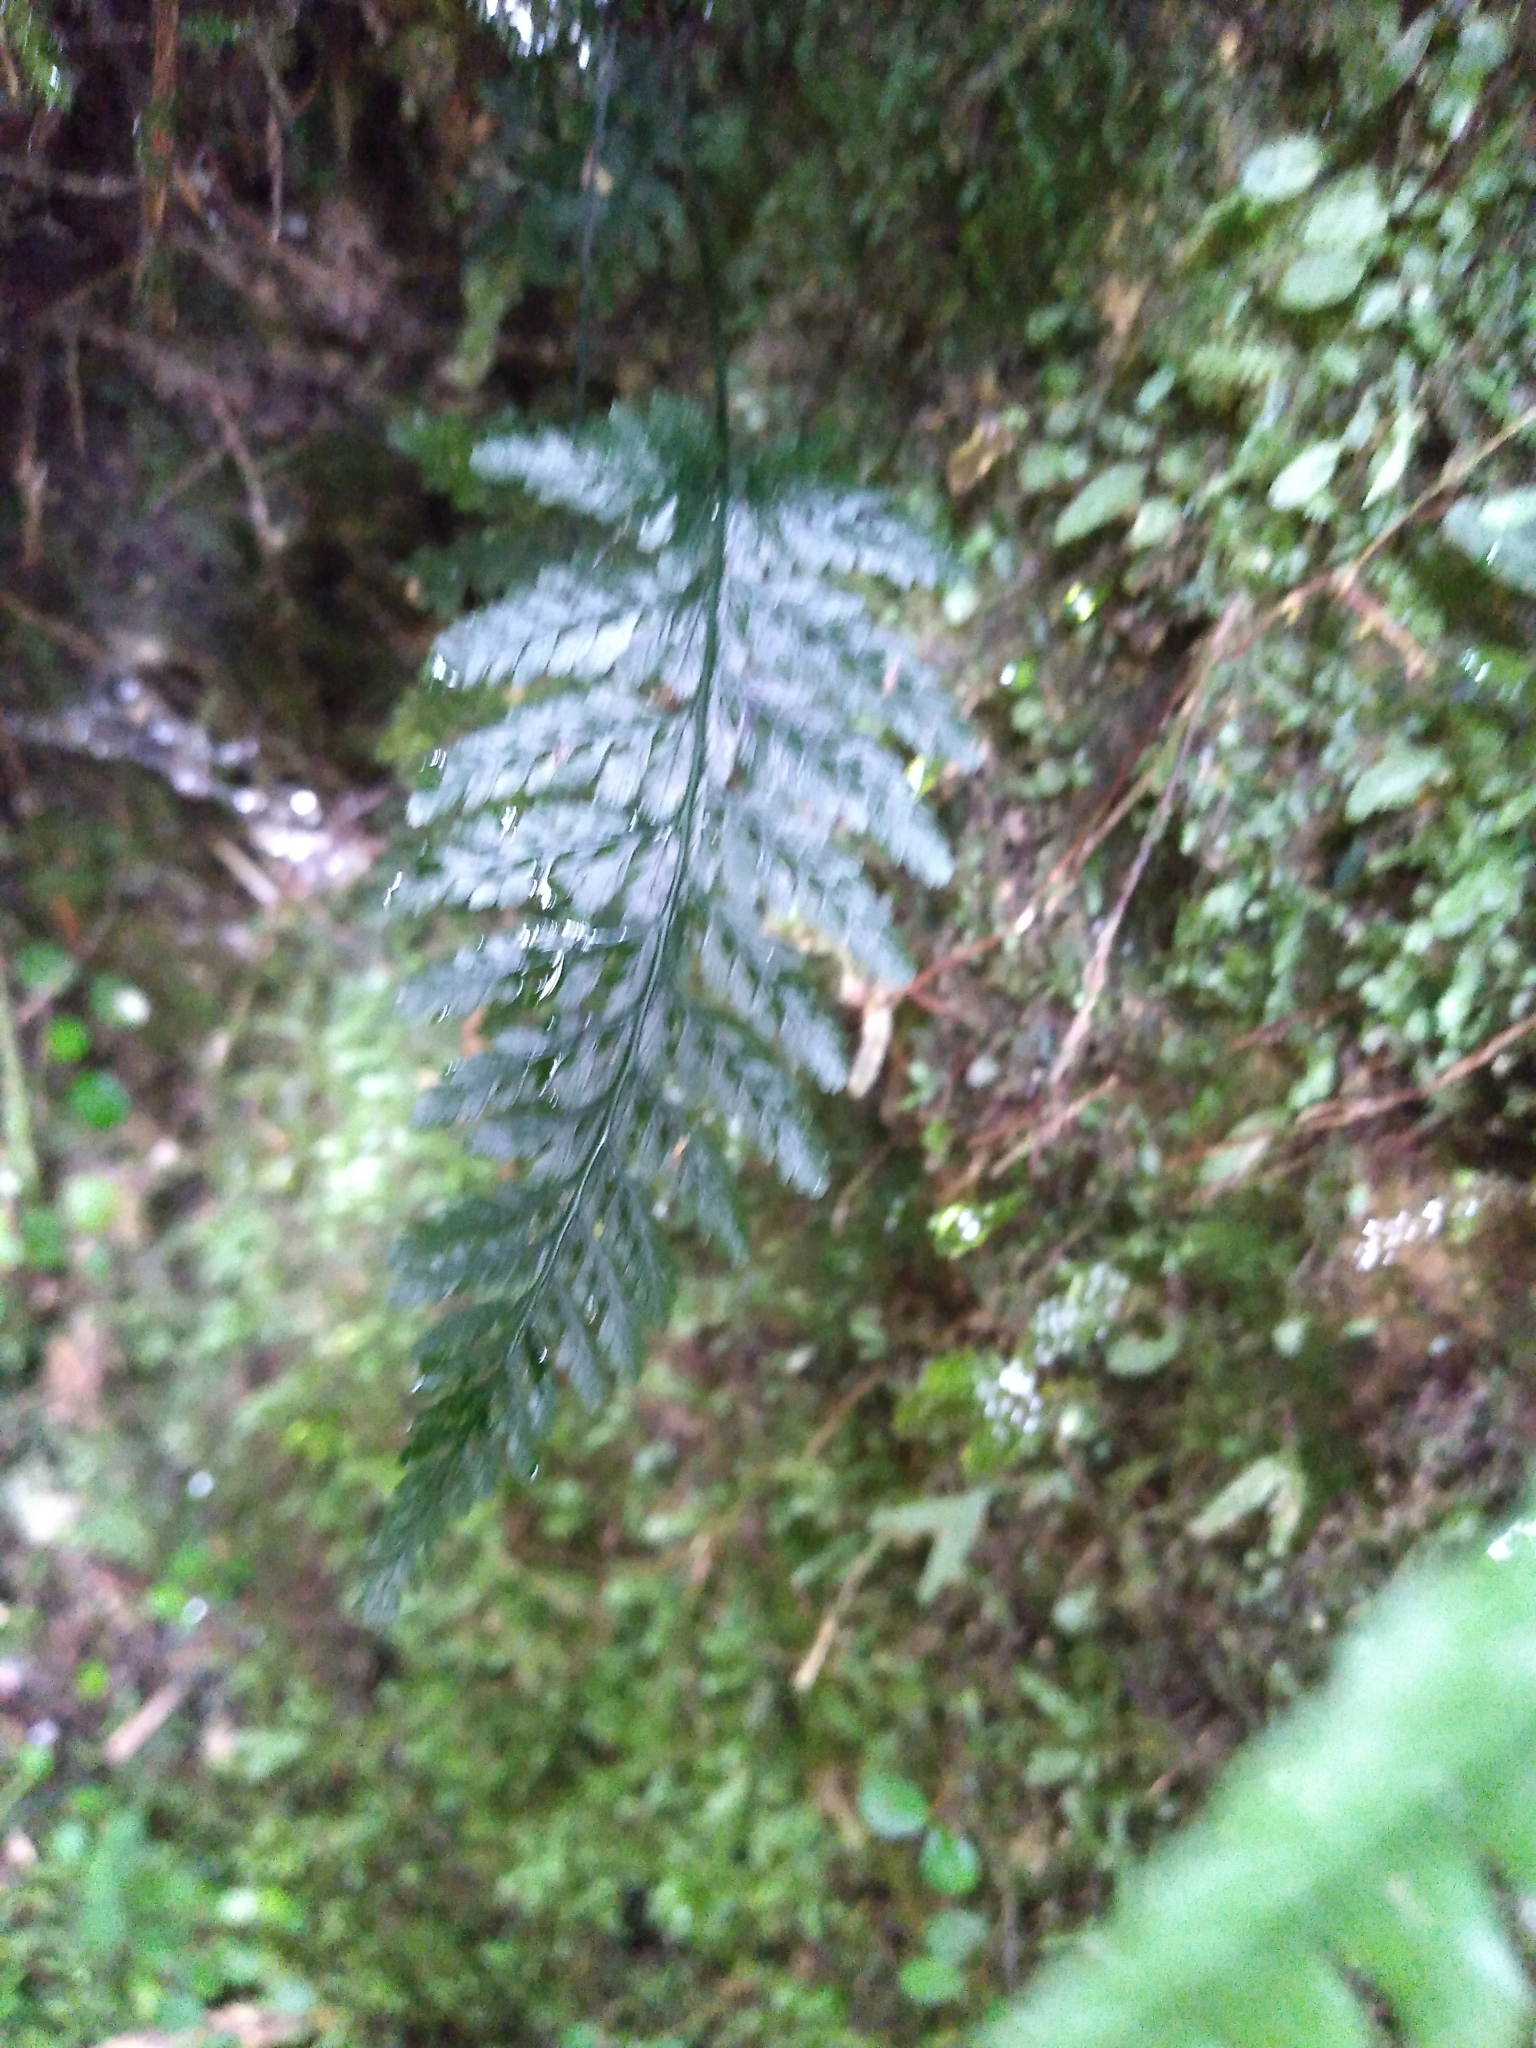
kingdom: Plantae
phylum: Tracheophyta
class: Polypodiopsida
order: Hymenophyllales
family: Hymenophyllaceae
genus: Abrodictyum
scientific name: Abrodictyum elongatum
